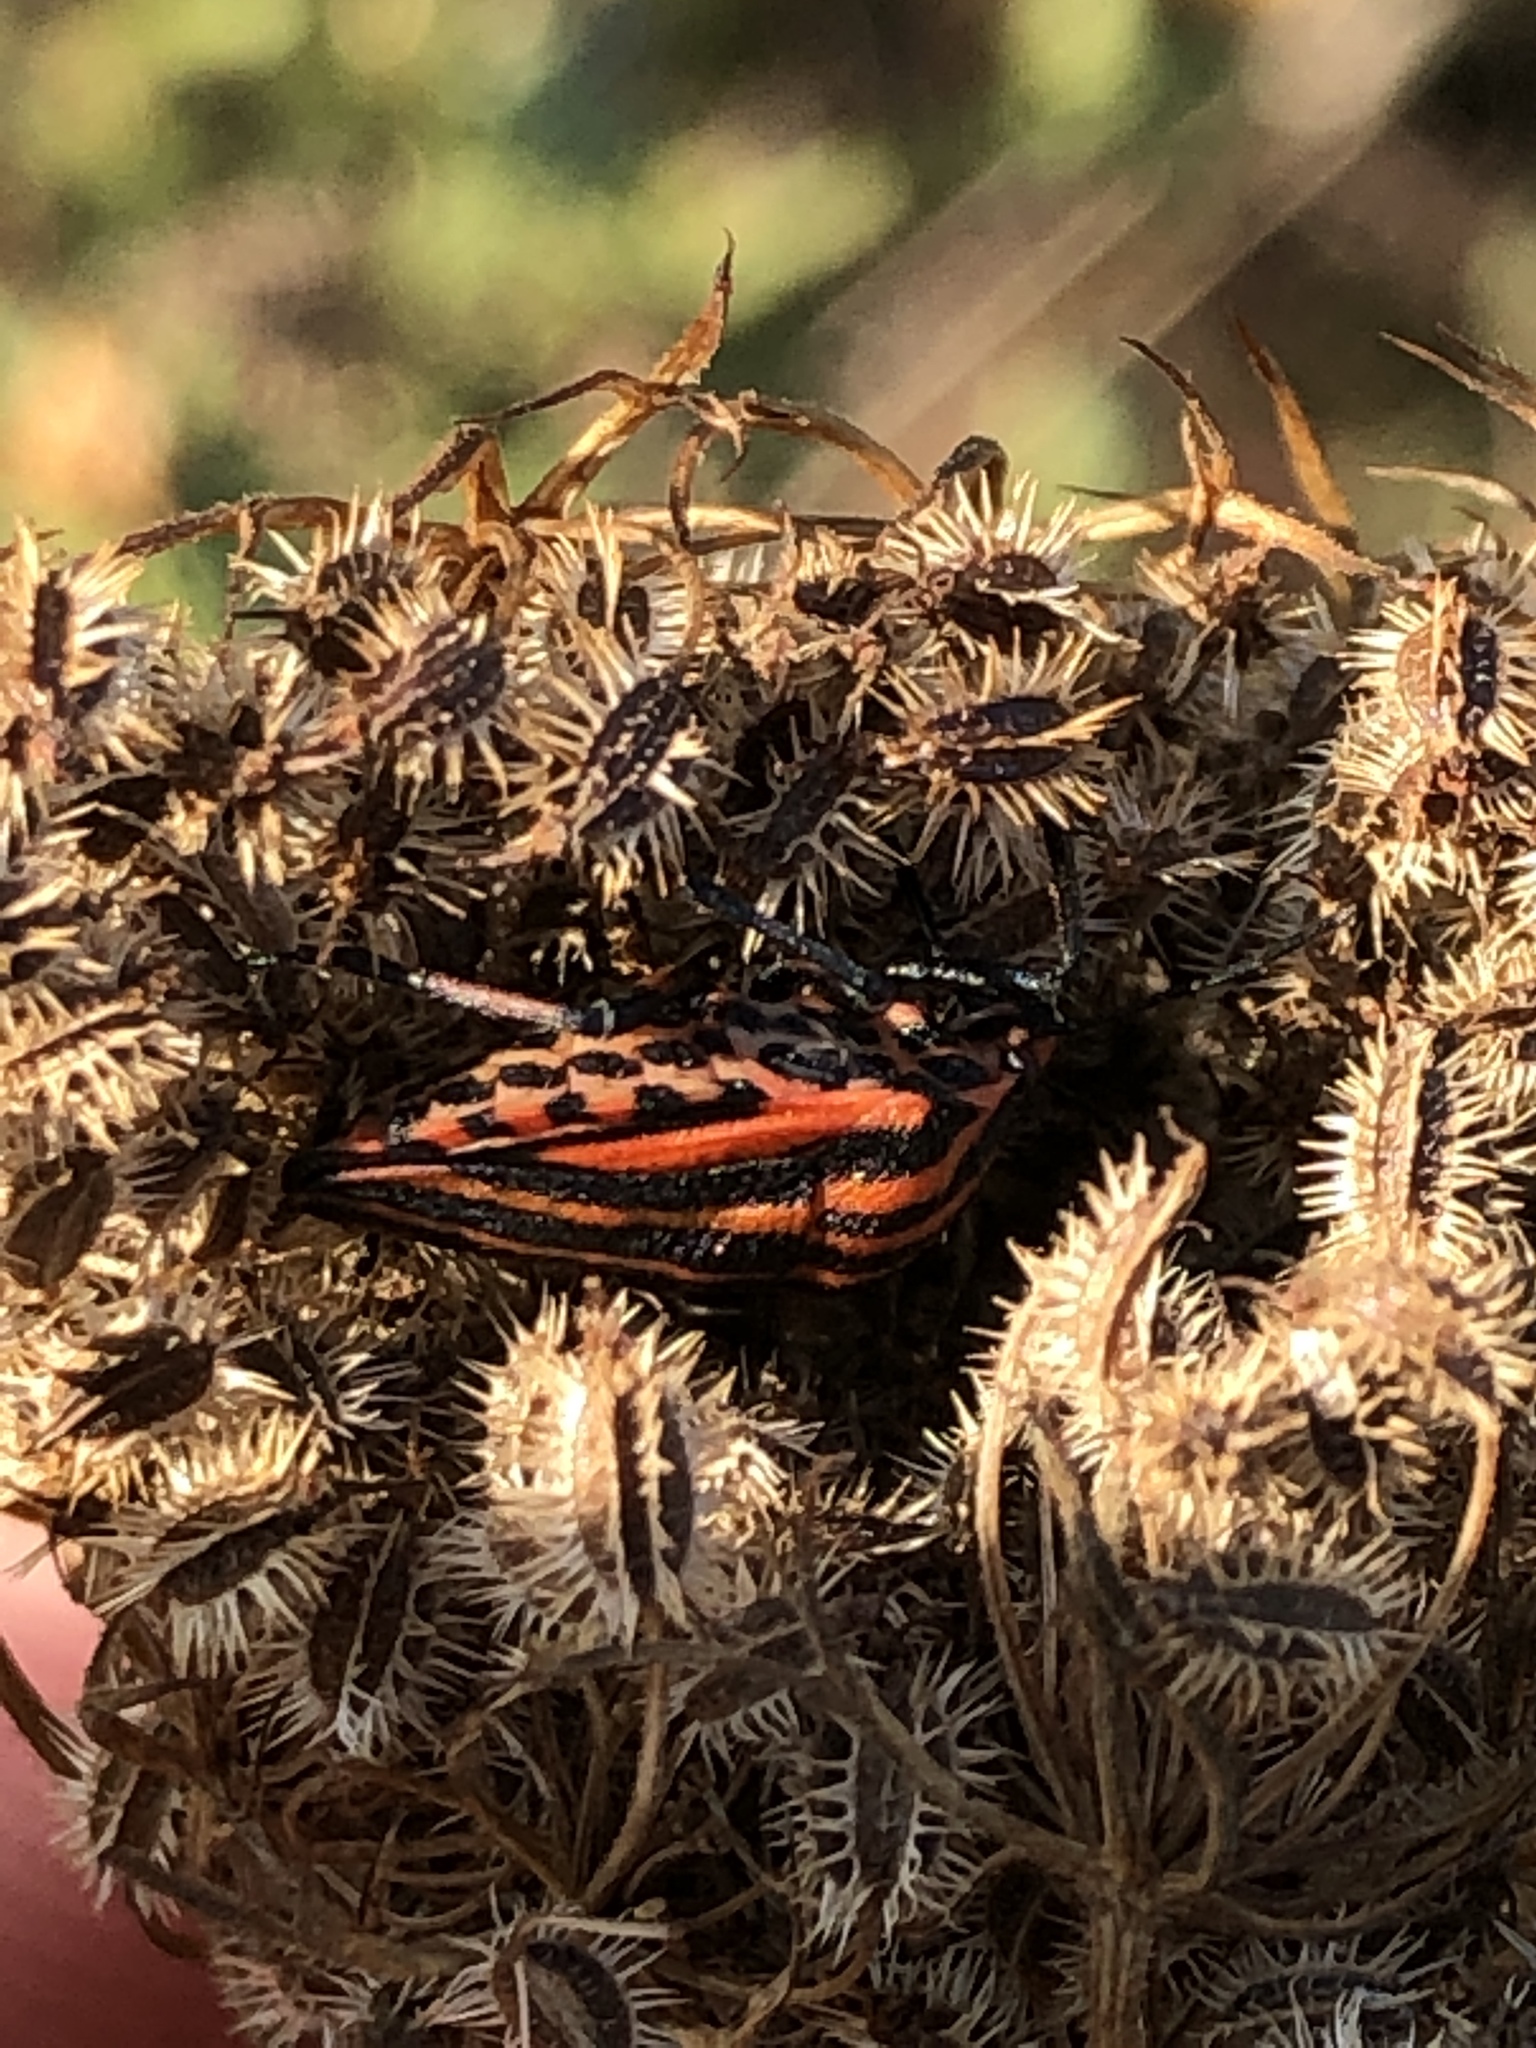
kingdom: Animalia
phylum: Arthropoda
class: Insecta
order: Hemiptera
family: Pentatomidae
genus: Graphosoma
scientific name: Graphosoma italicum
